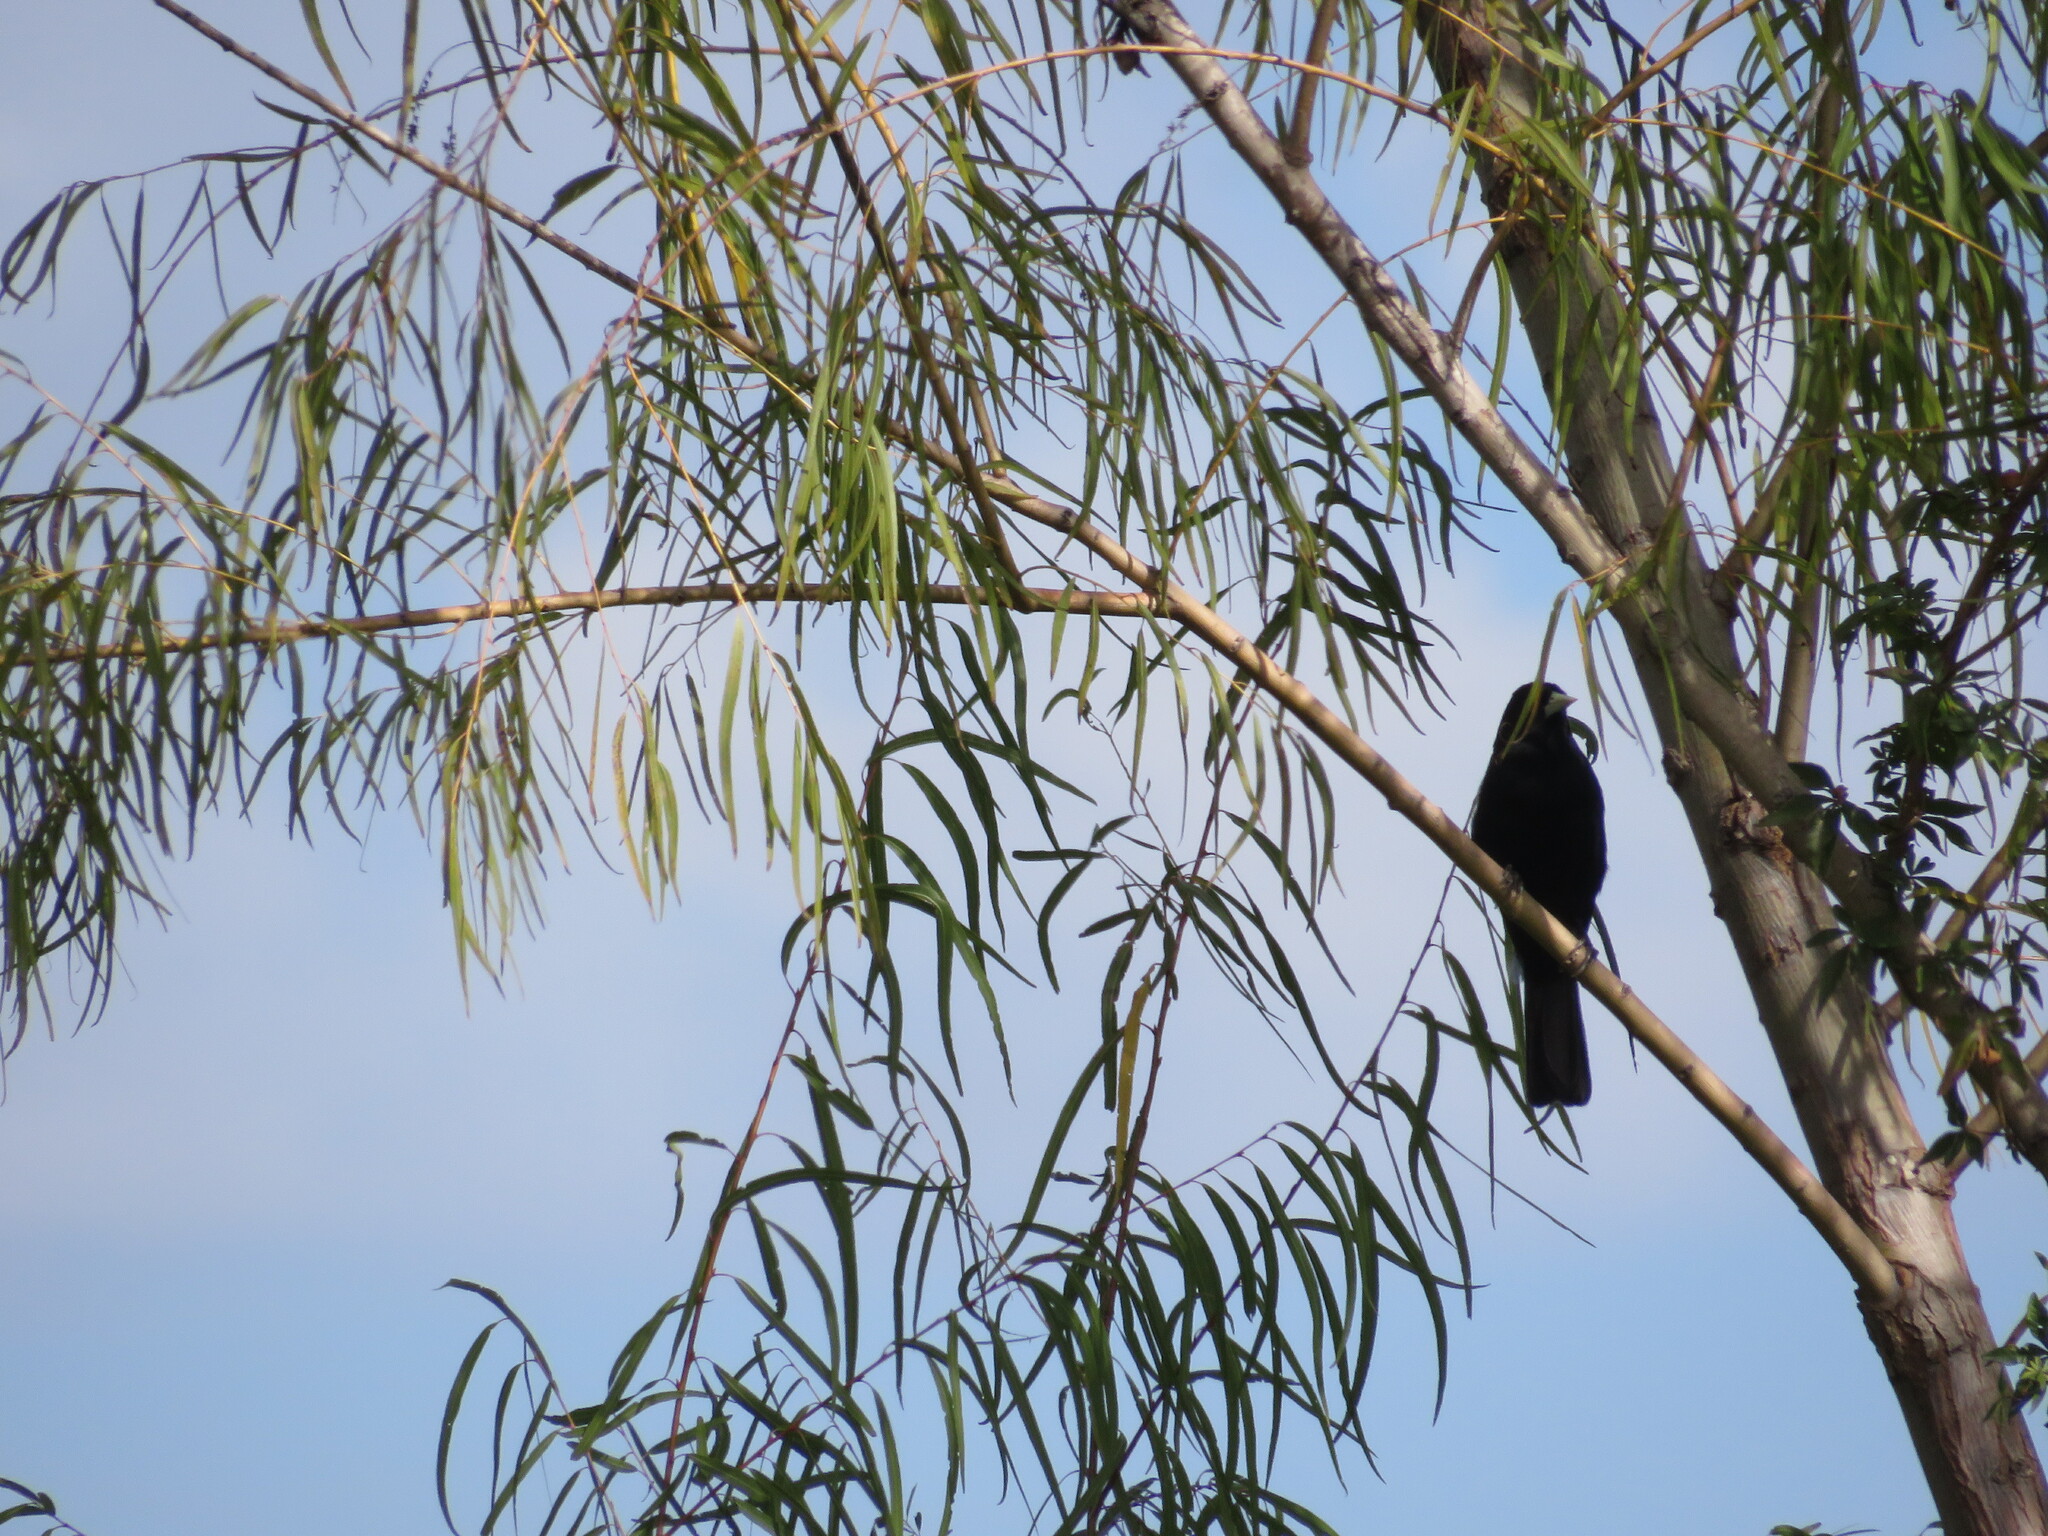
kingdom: Animalia
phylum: Chordata
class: Aves
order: Passeriformes
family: Icteridae
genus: Cacicus
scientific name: Cacicus solitarius
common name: Solitary cacique
